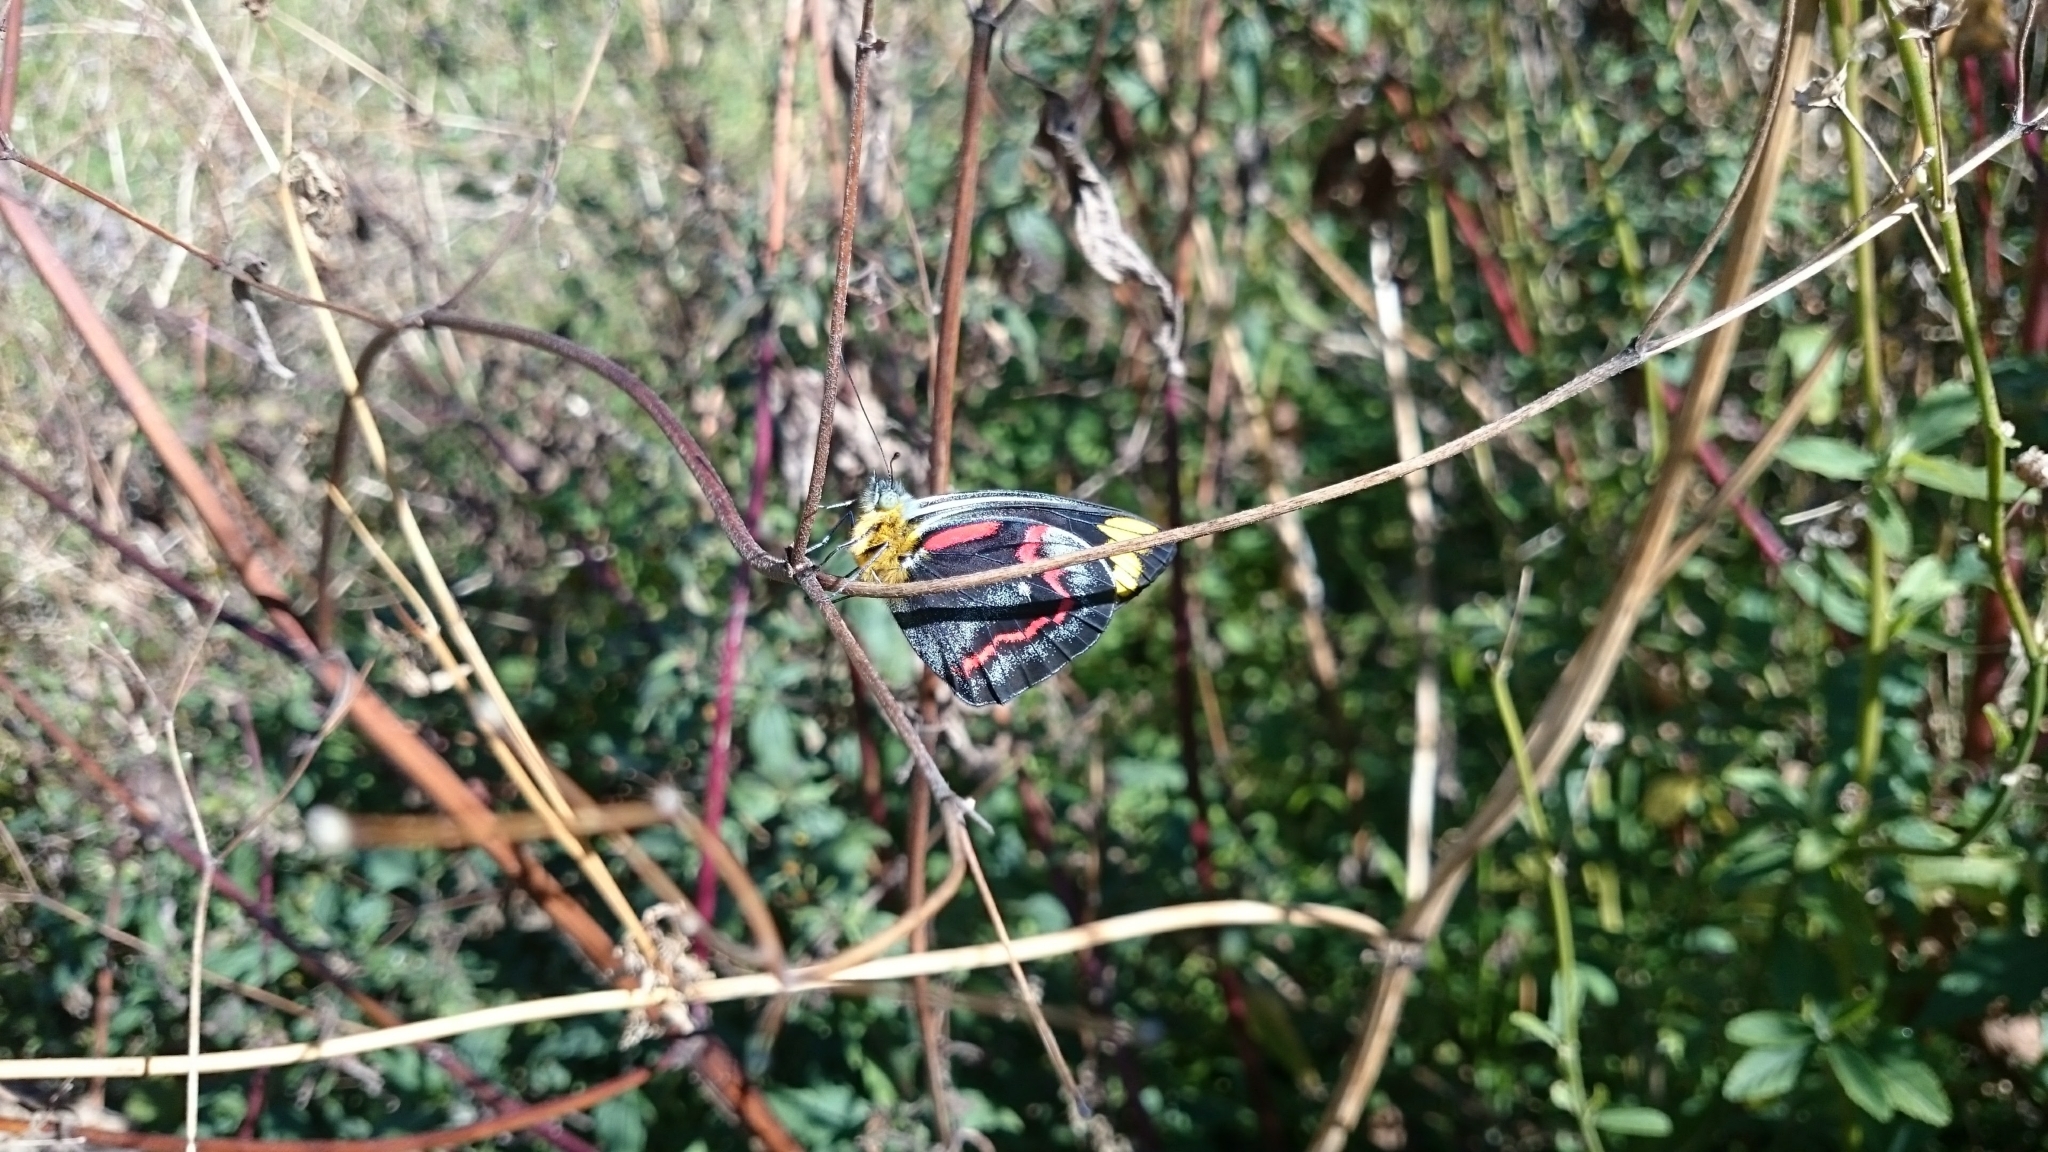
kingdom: Animalia
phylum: Arthropoda
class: Insecta
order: Lepidoptera
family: Pieridae
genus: Delias
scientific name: Delias nigrina
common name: Black jezebel
